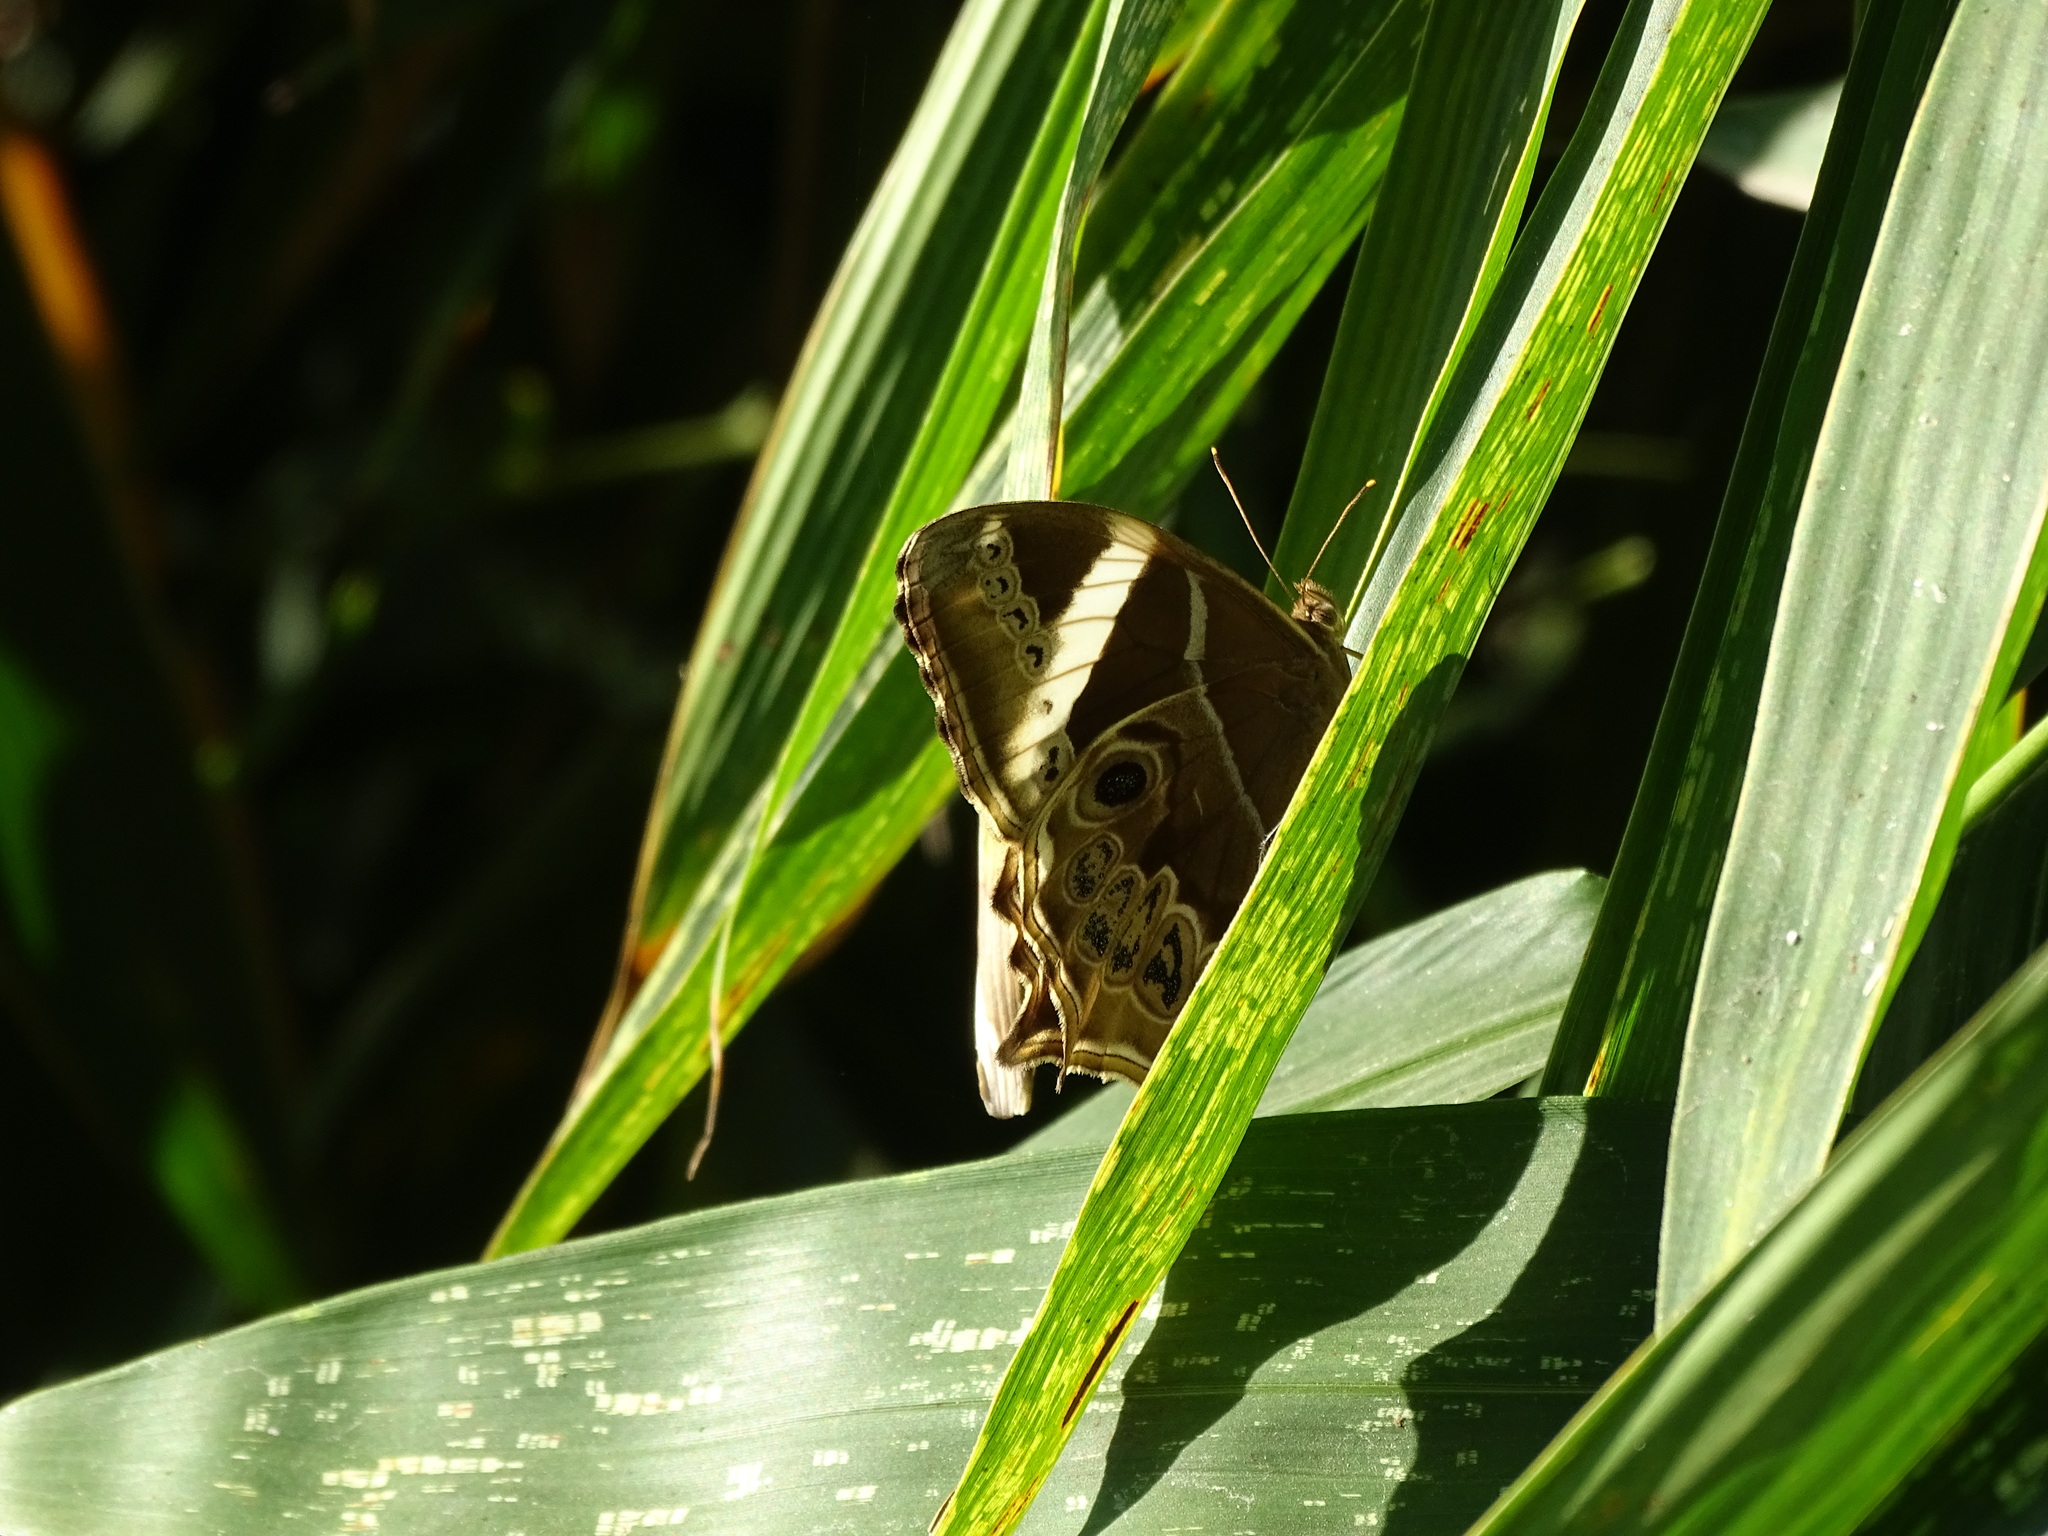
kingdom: Animalia
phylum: Arthropoda
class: Insecta
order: Lepidoptera
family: Nymphalidae
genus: Lethe
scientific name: Lethe europa
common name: Bamboo treebrown
